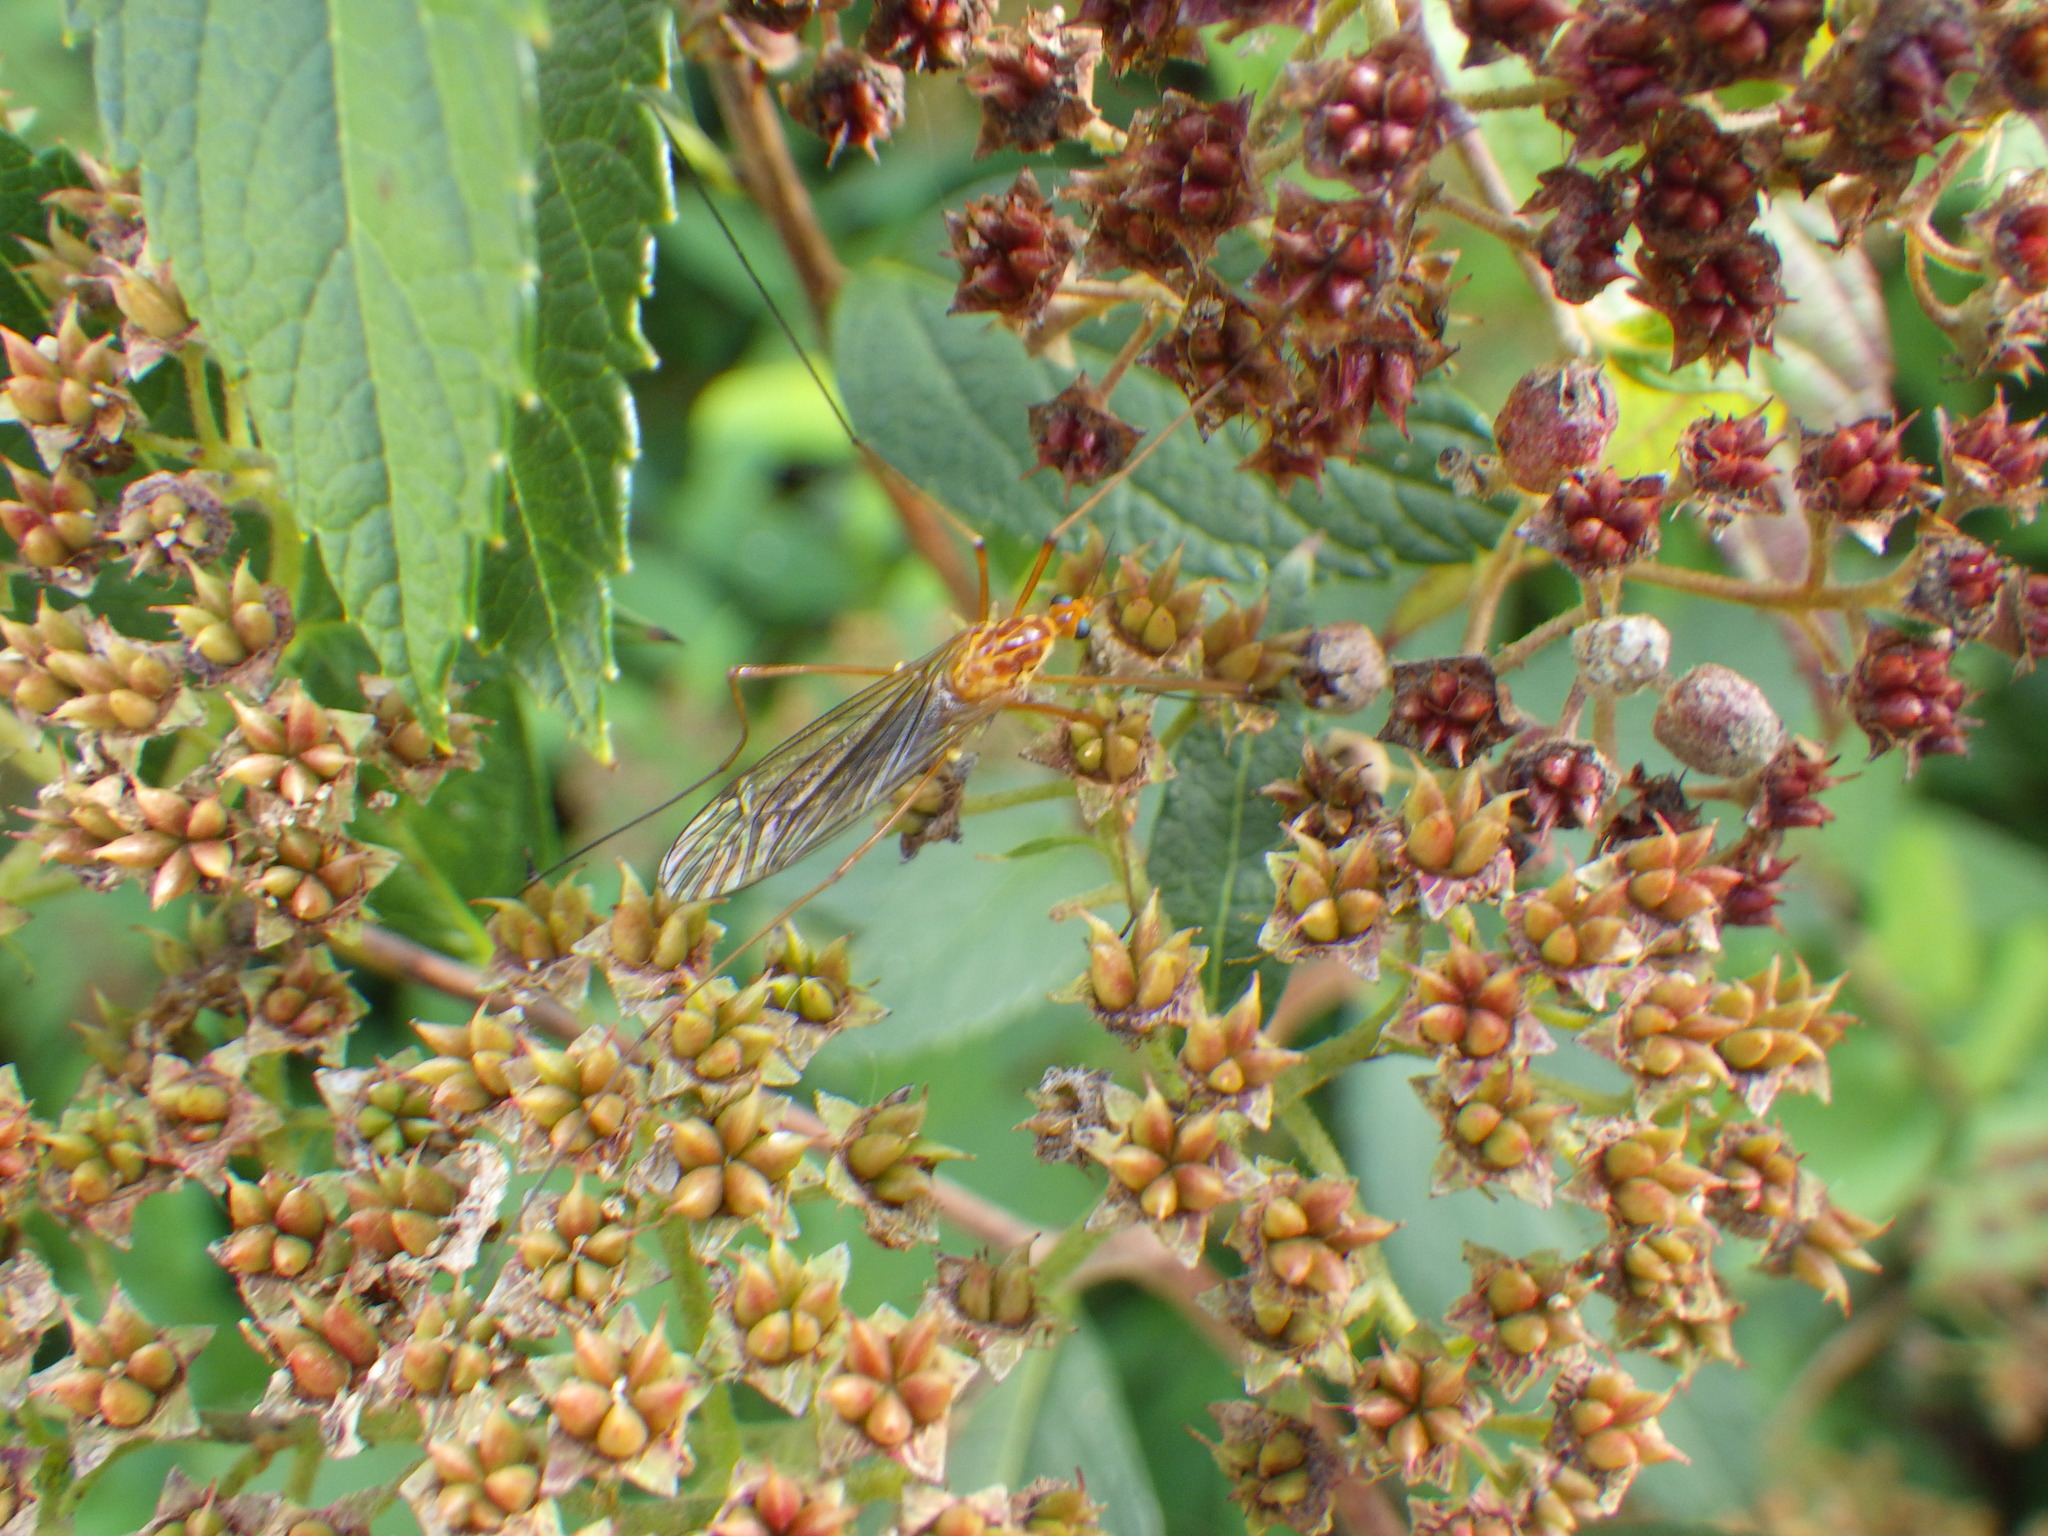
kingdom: Animalia
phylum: Arthropoda
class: Insecta
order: Diptera
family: Tipulidae
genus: Nephrotoma
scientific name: Nephrotoma ferruginea
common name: Ferruginous tiger crane fly
